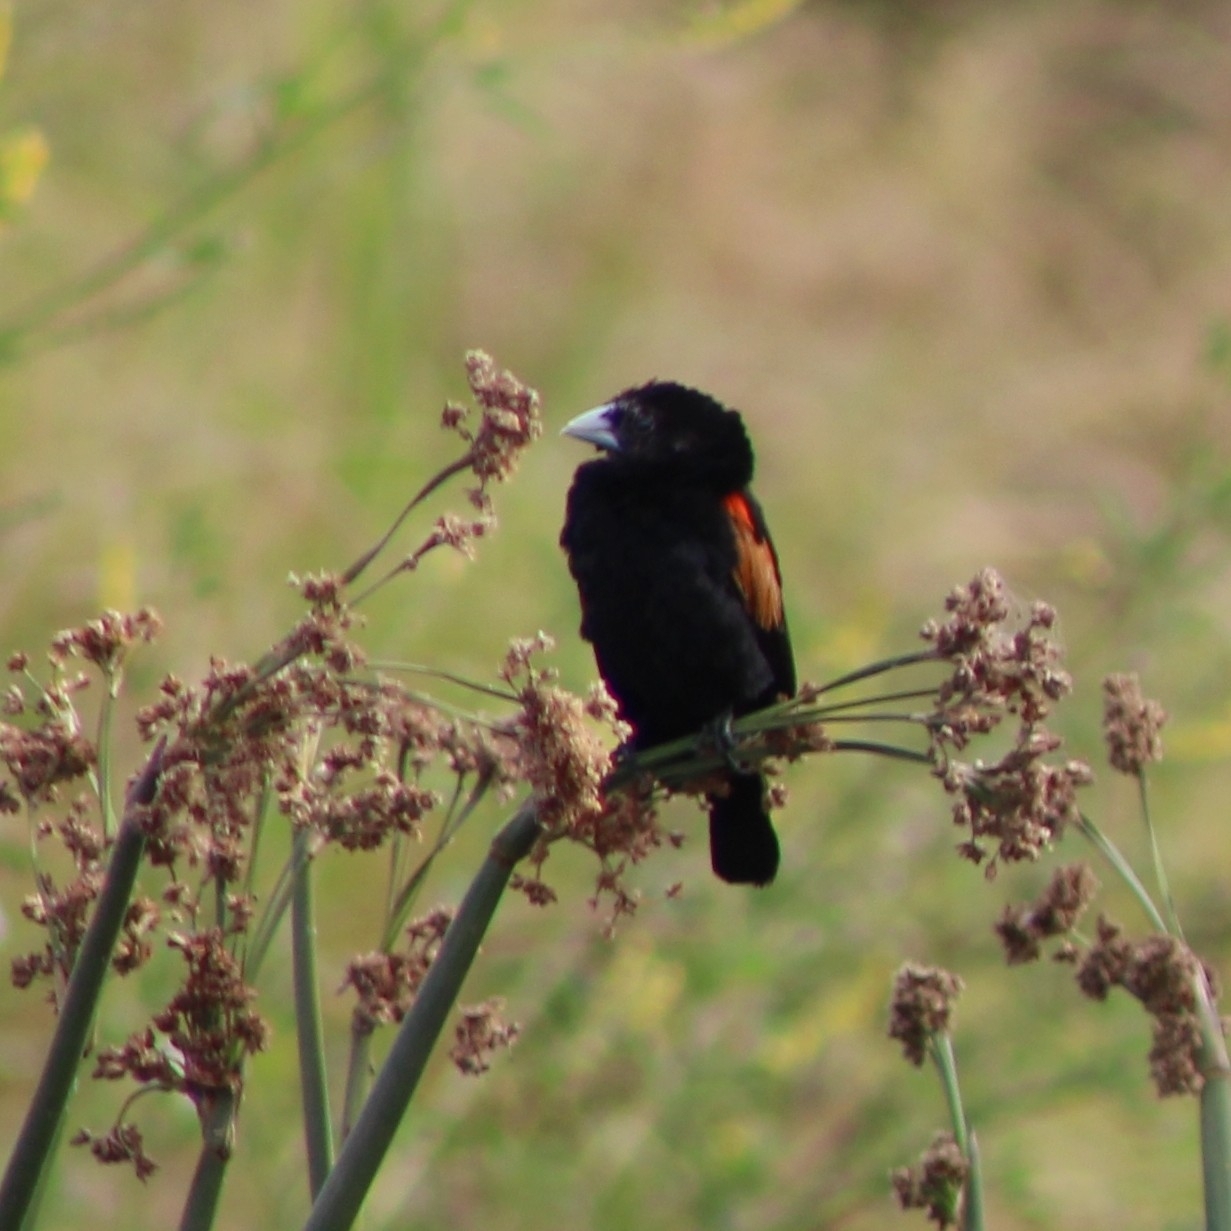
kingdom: Animalia
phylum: Chordata
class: Aves
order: Passeriformes
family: Ploceidae
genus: Euplectes
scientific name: Euplectes axillaris
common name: Fan-tailed widowbird
